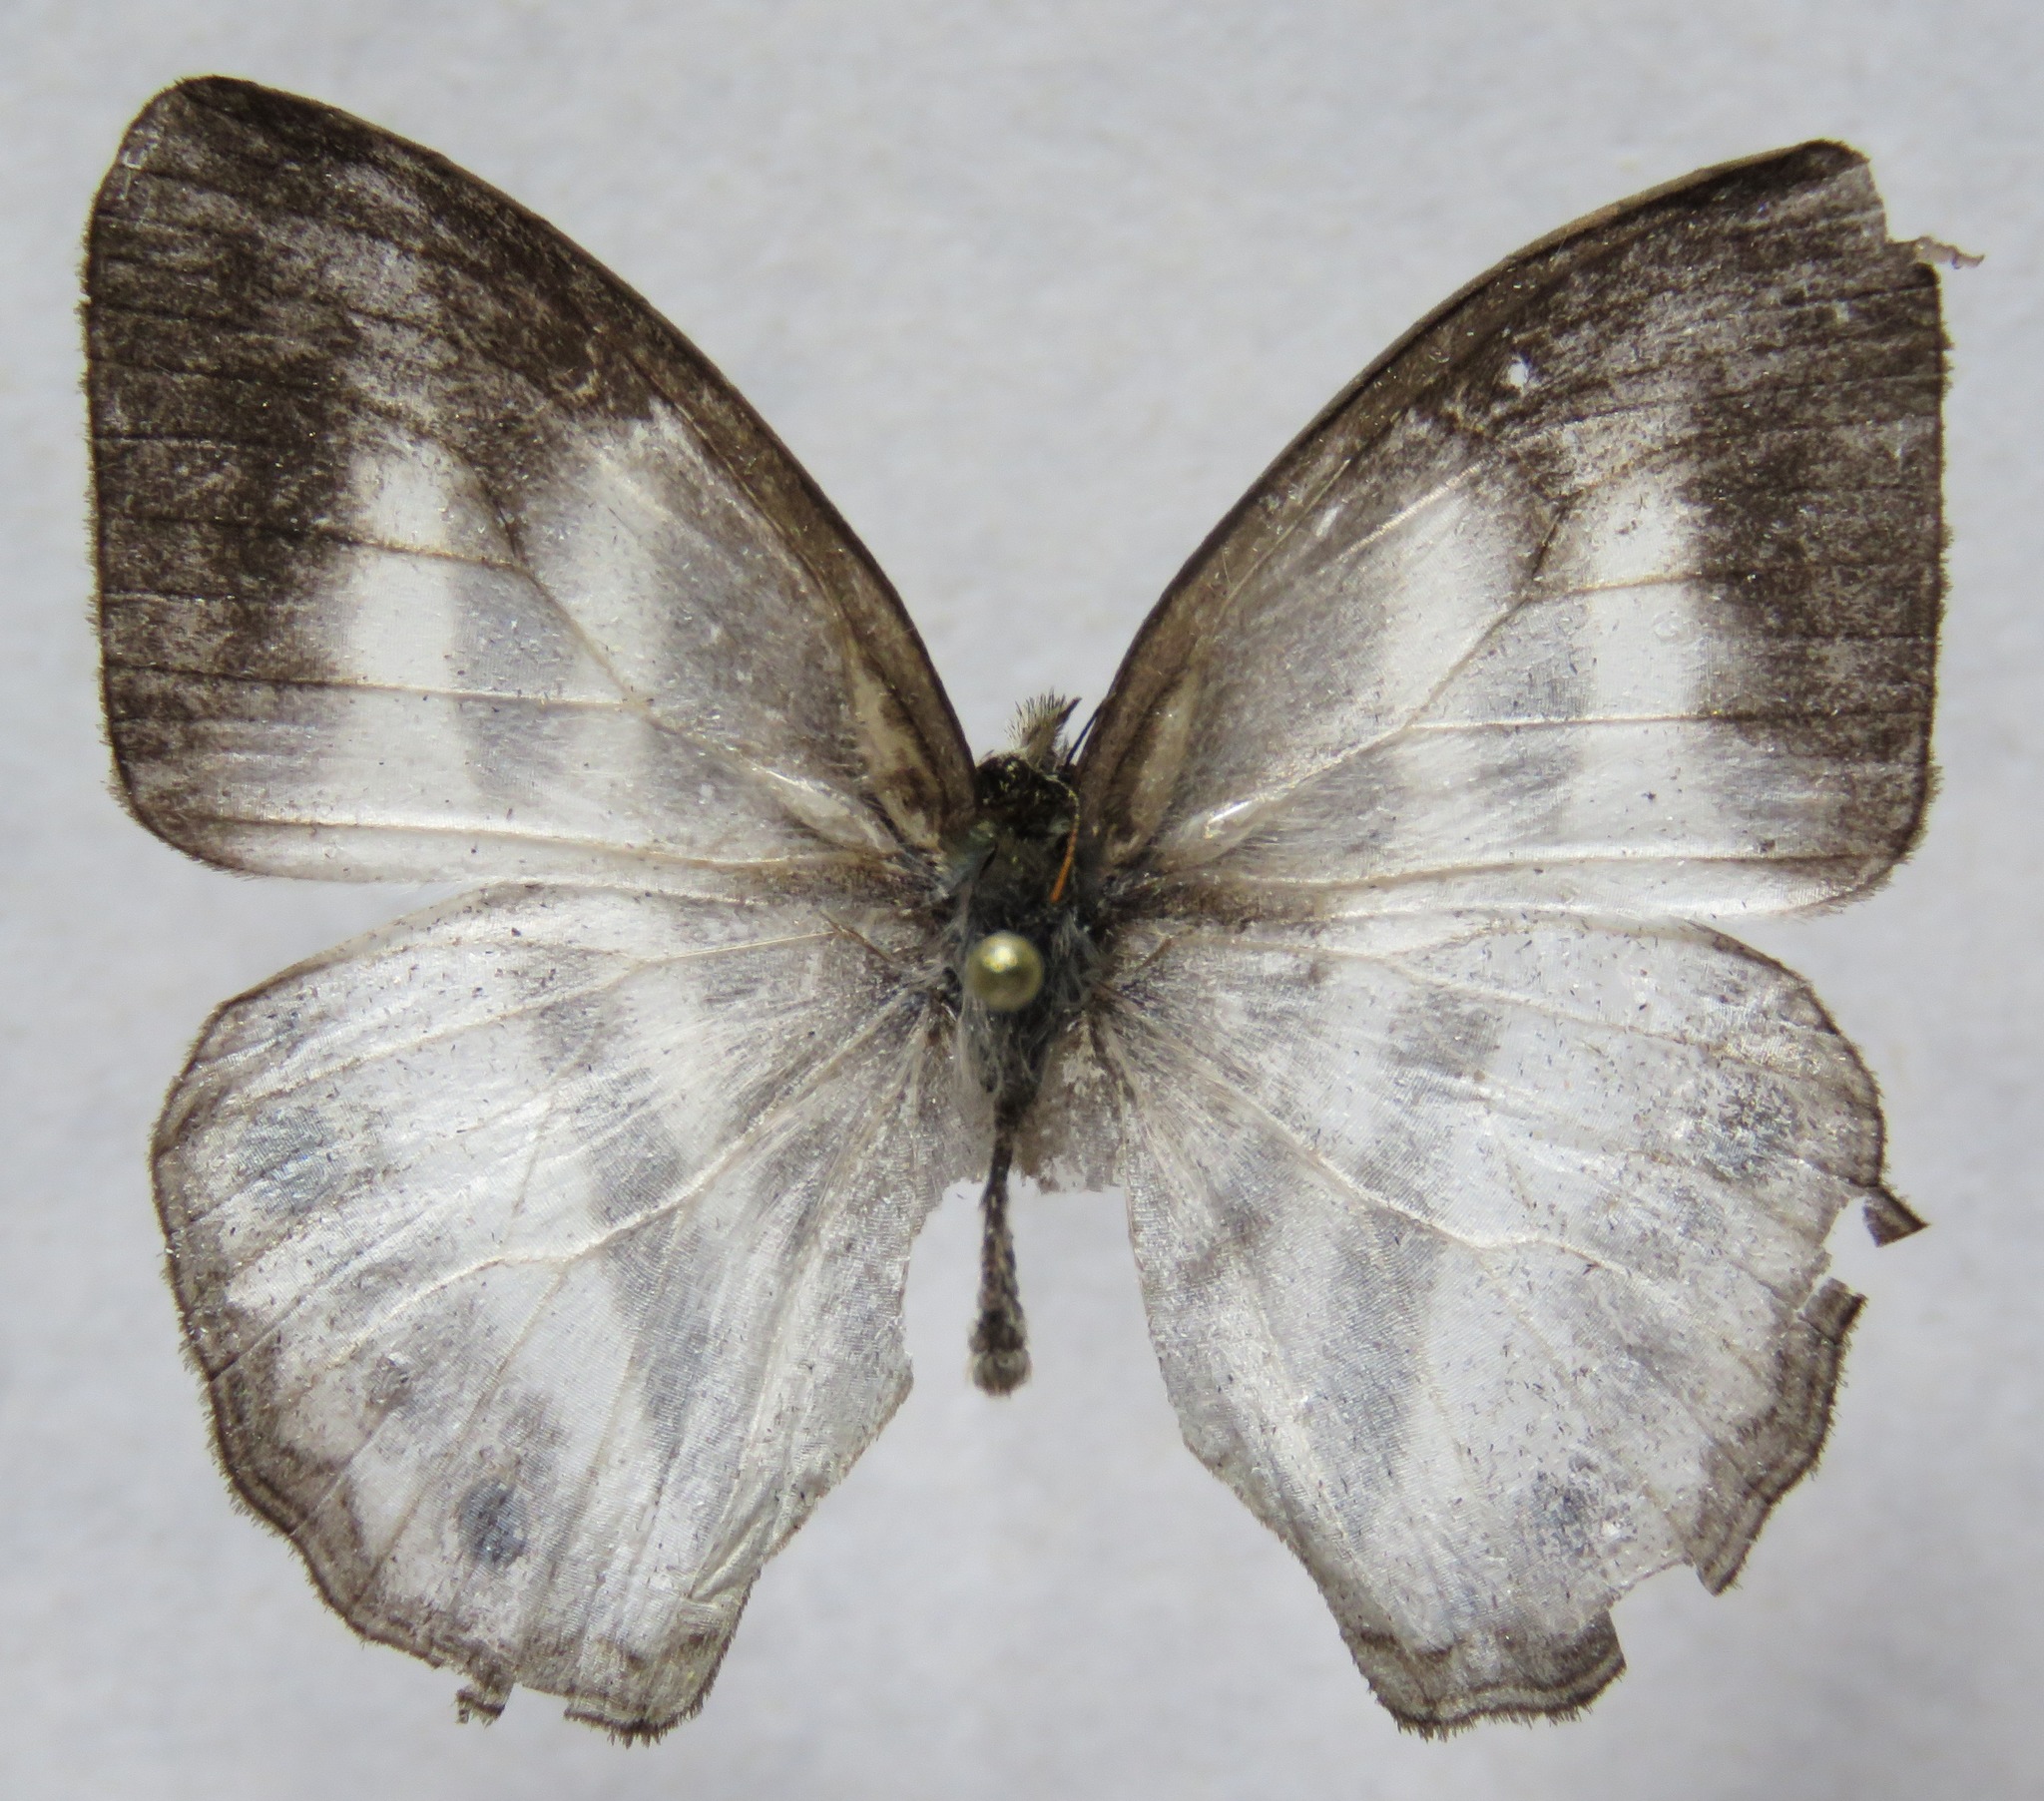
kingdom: Animalia
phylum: Arthropoda
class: Insecta
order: Lepidoptera
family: Nymphalidae
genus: Pareuptychia
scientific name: Pareuptychia hesione
